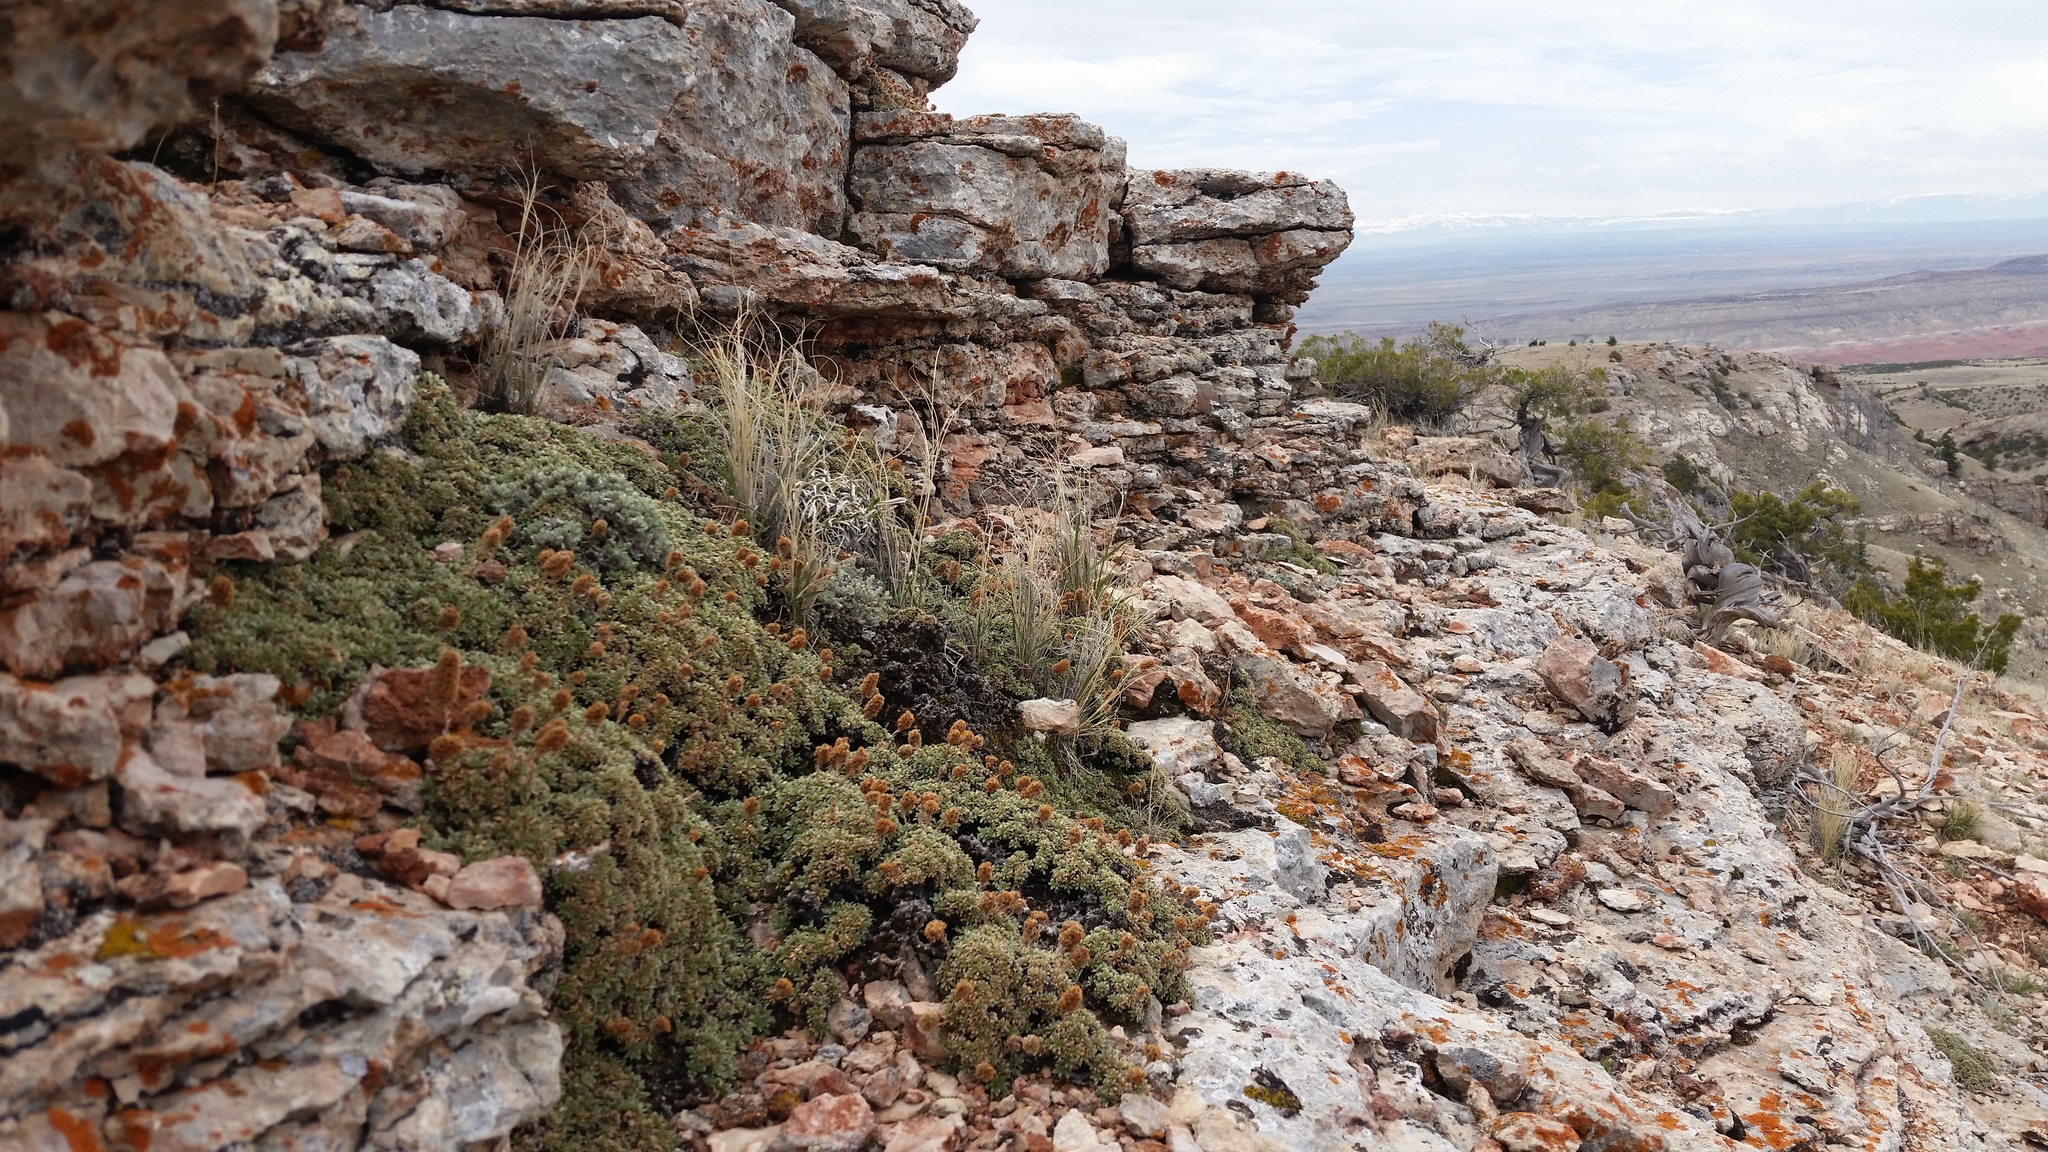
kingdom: Plantae
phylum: Tracheophyta
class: Magnoliopsida
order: Rosales
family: Rosaceae
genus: Petrophytum
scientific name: Petrophytum caespitosum
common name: Mat rockspirea
